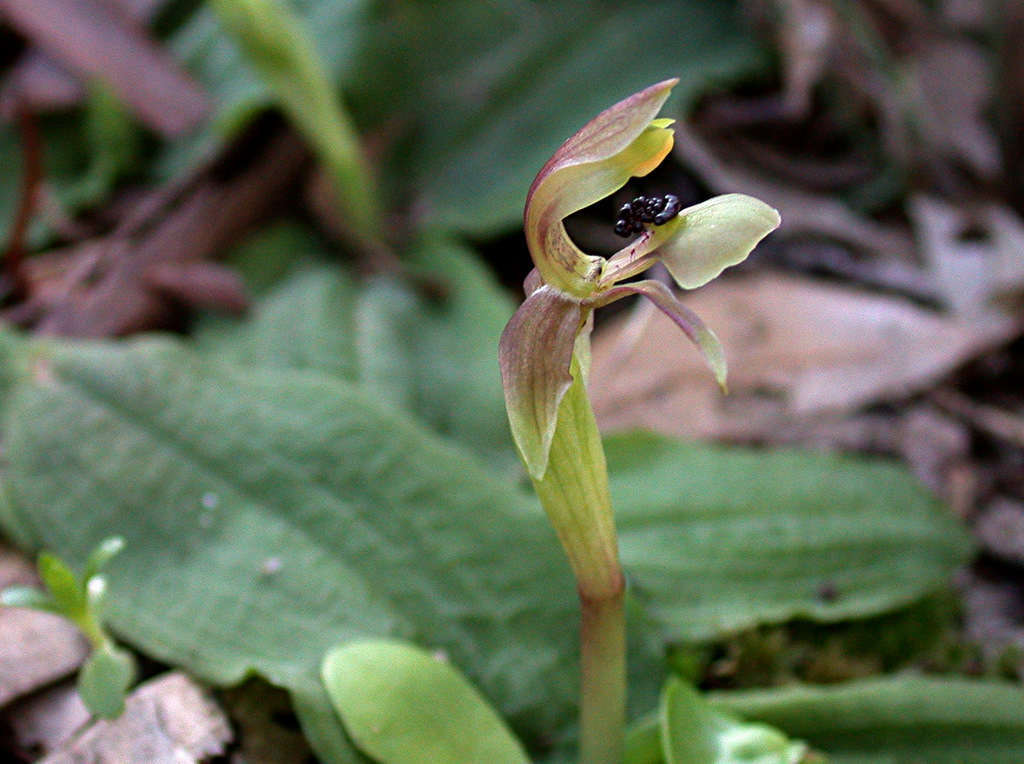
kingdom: Plantae
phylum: Tracheophyta
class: Liliopsida
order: Asparagales
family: Orchidaceae
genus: Chiloglottis
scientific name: Chiloglottis trapeziformis
